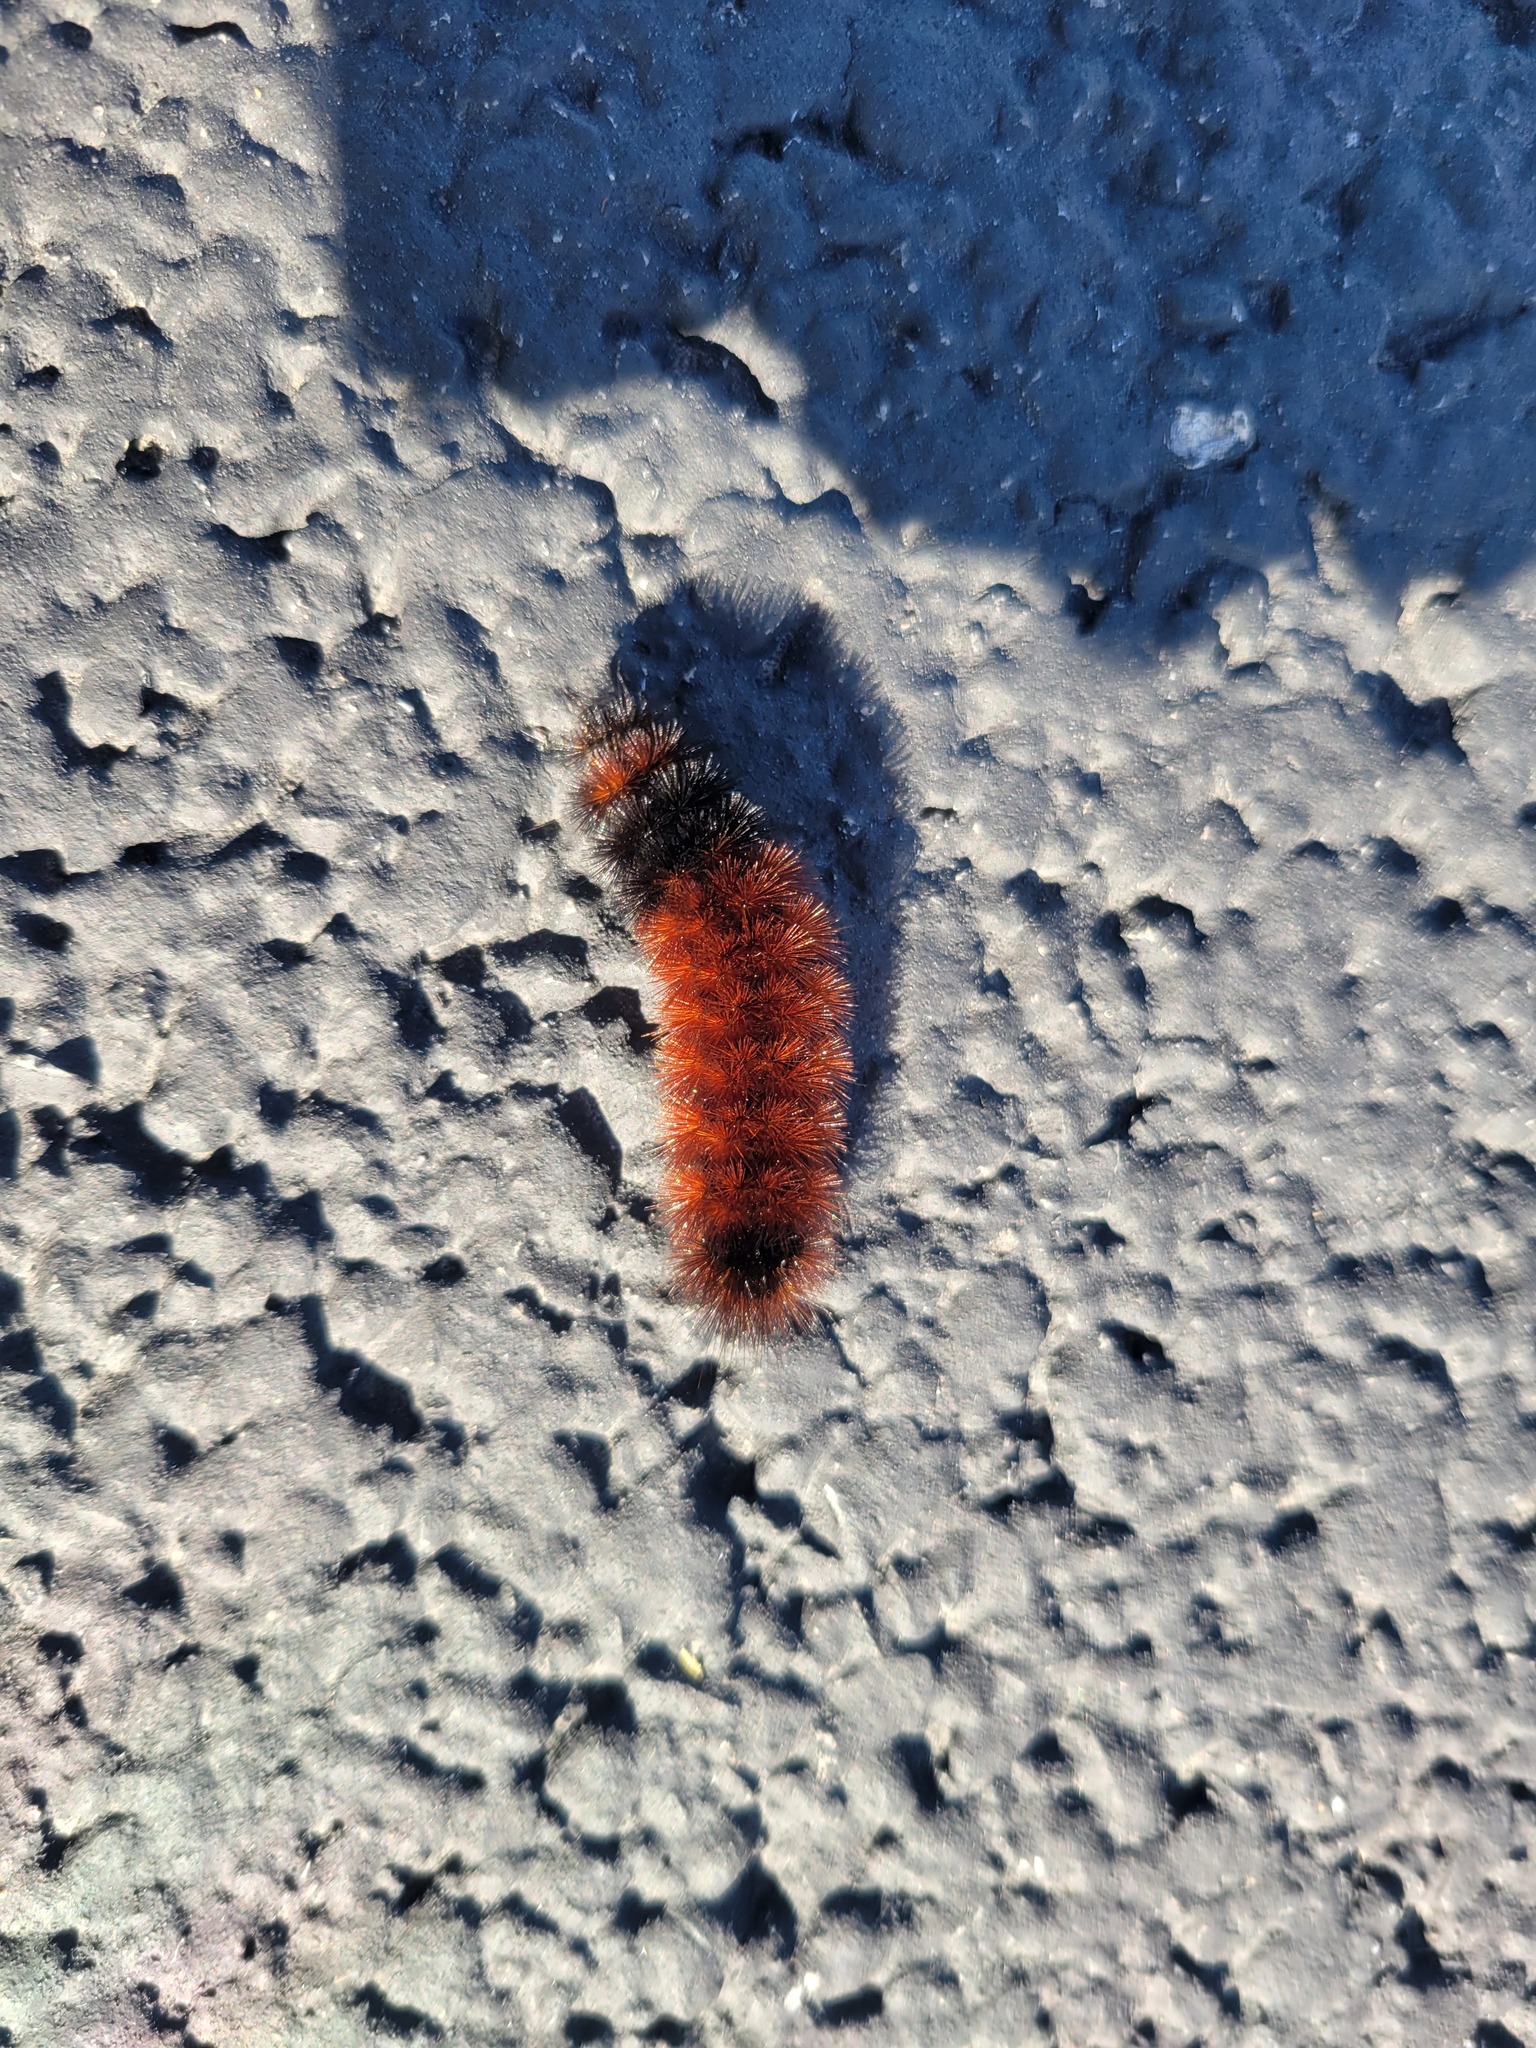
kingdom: Animalia
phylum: Arthropoda
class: Insecta
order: Lepidoptera
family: Erebidae
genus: Pyrrharctia
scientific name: Pyrrharctia isabella
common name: Isabella tiger moth
